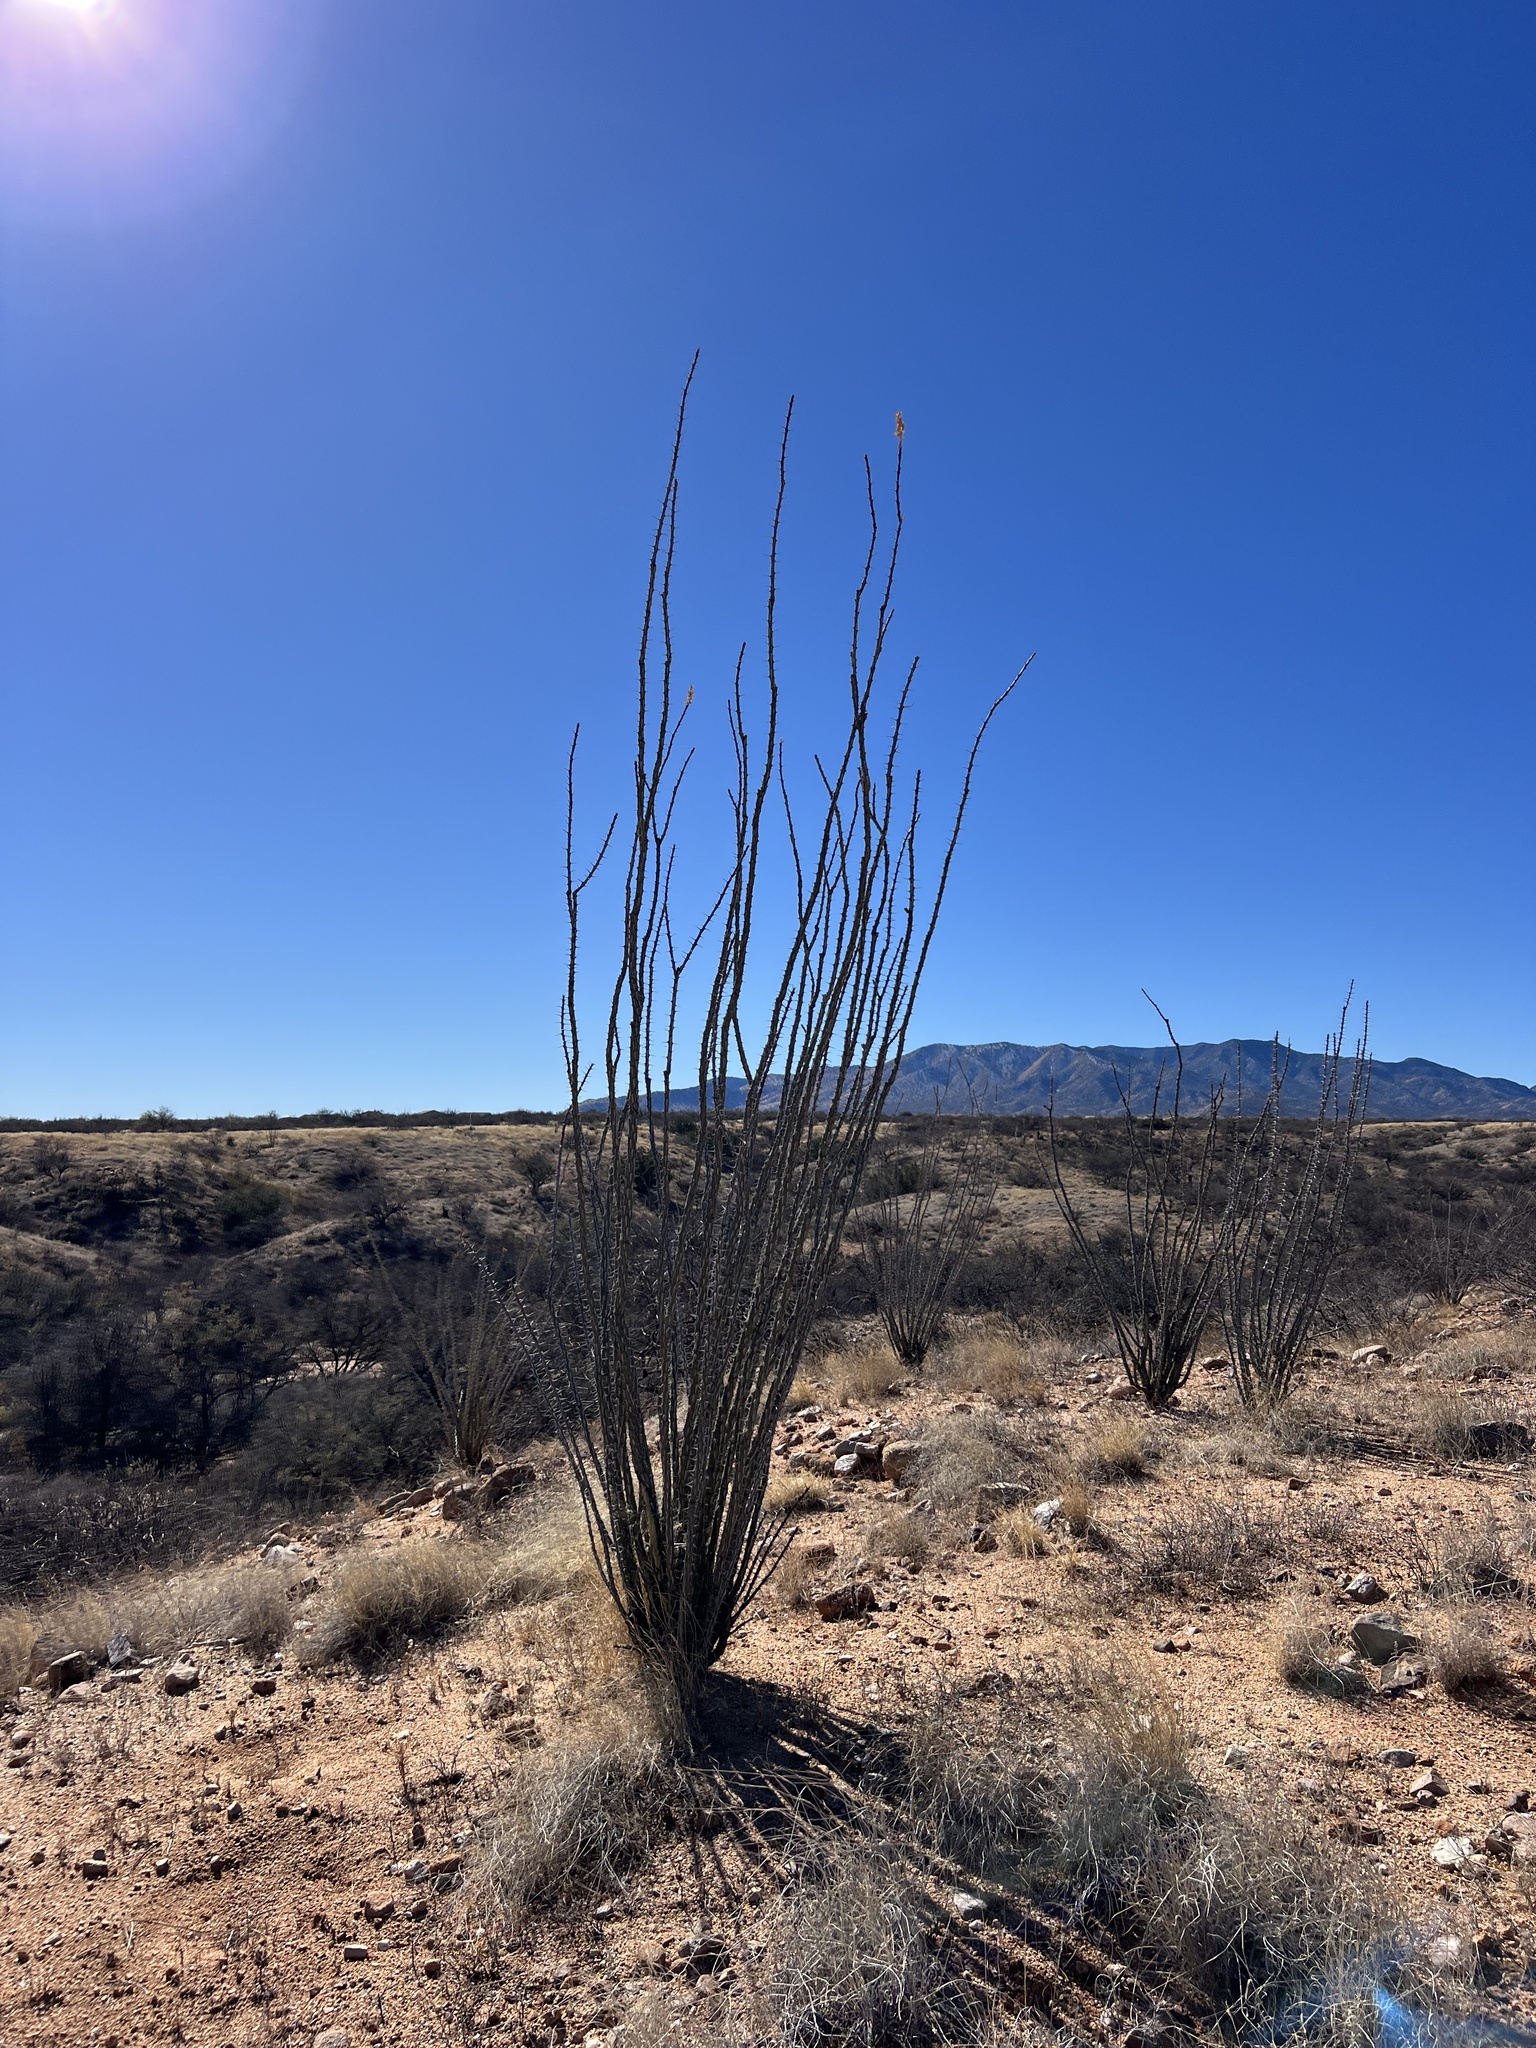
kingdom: Plantae
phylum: Tracheophyta
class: Magnoliopsida
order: Ericales
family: Fouquieriaceae
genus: Fouquieria
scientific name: Fouquieria splendens
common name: Vine-cactus
